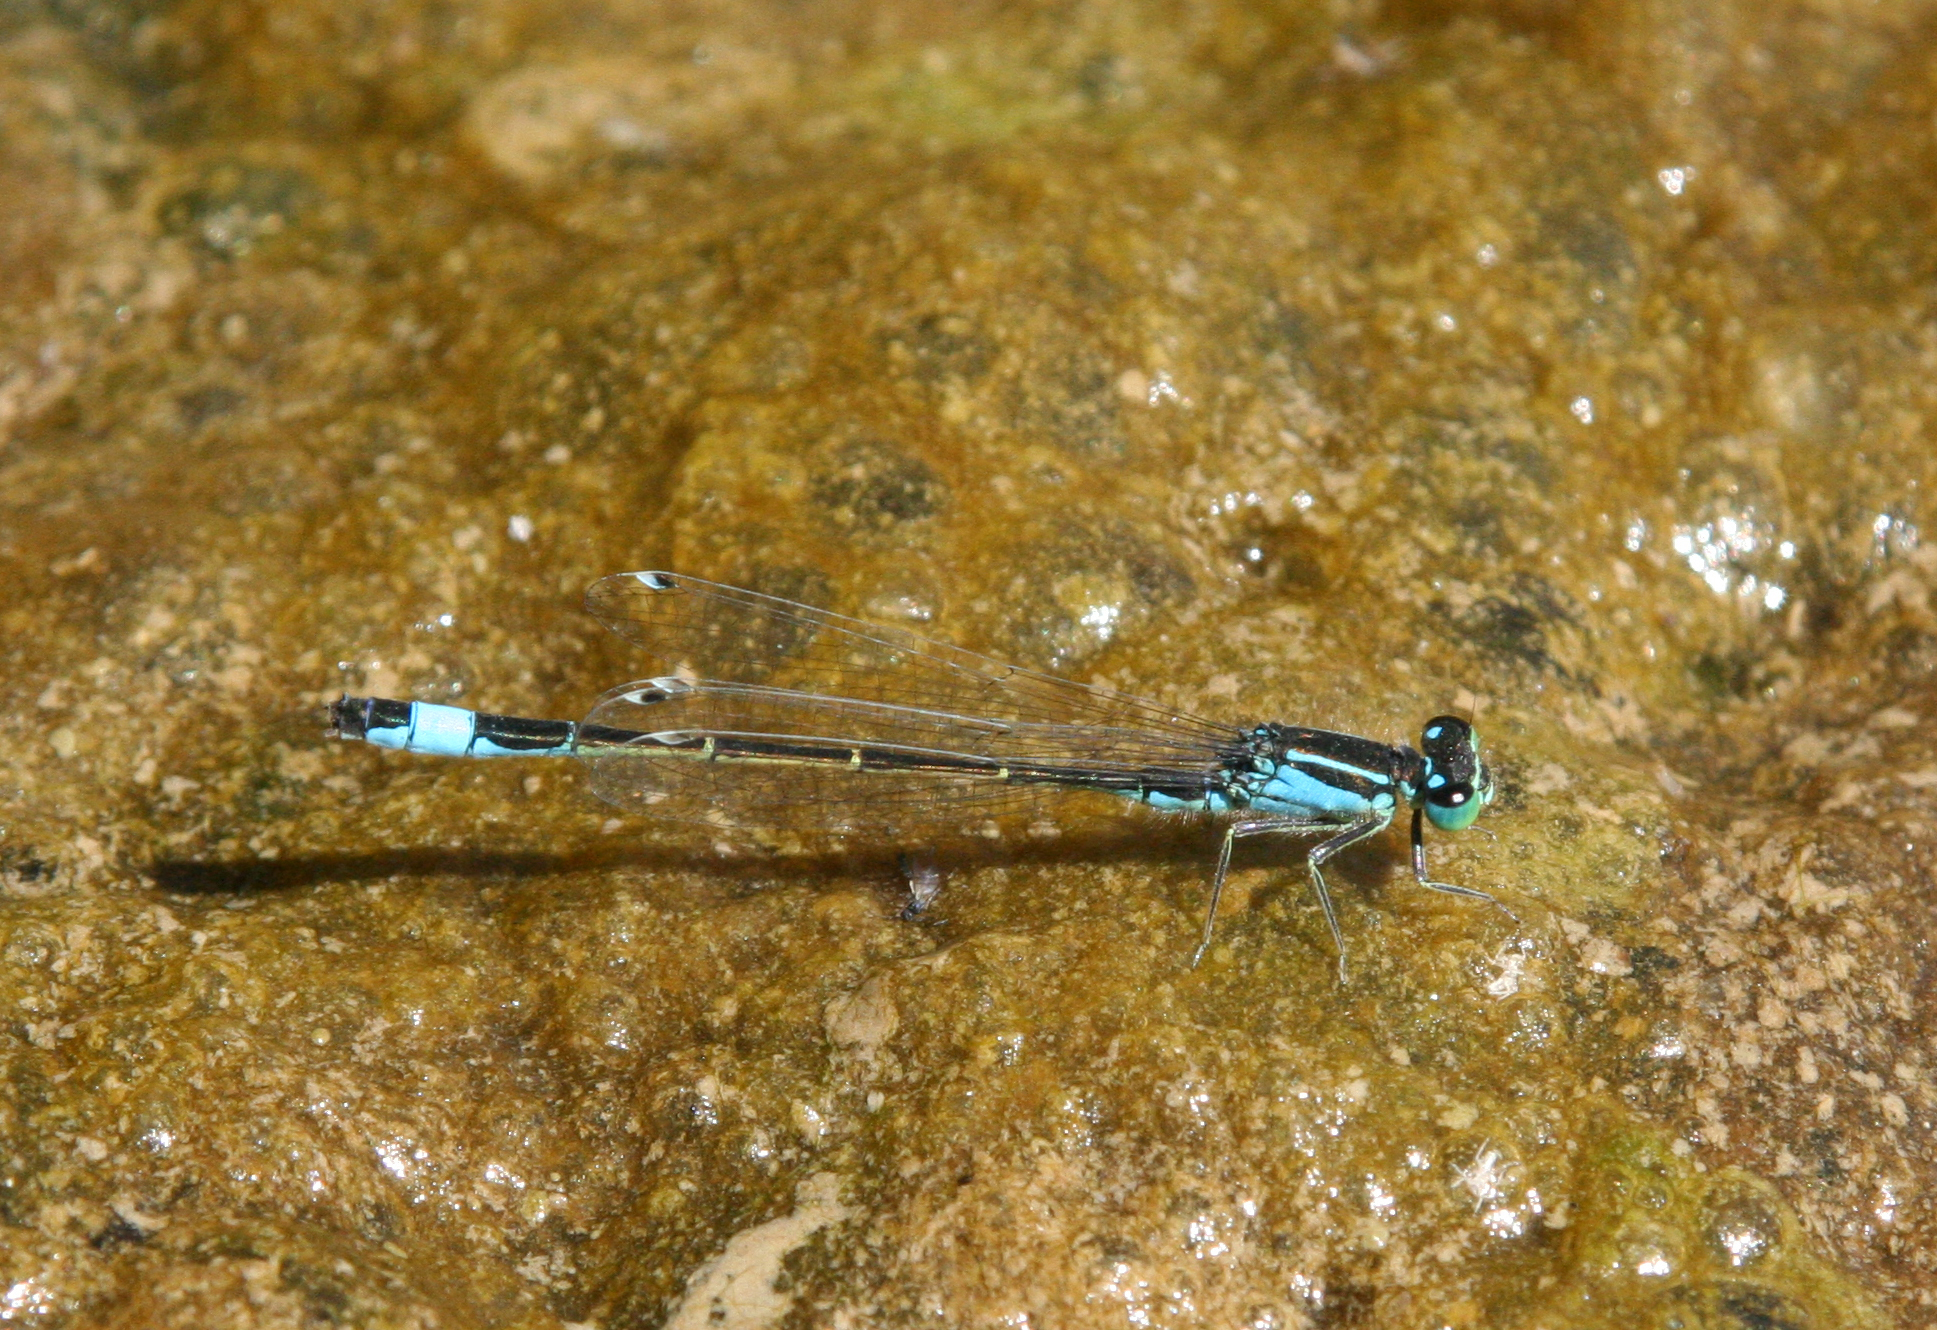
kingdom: Animalia
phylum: Arthropoda
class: Insecta
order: Odonata
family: Coenagrionidae
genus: Ischnura
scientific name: Ischnura elegans
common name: Blue-tailed damselfly
